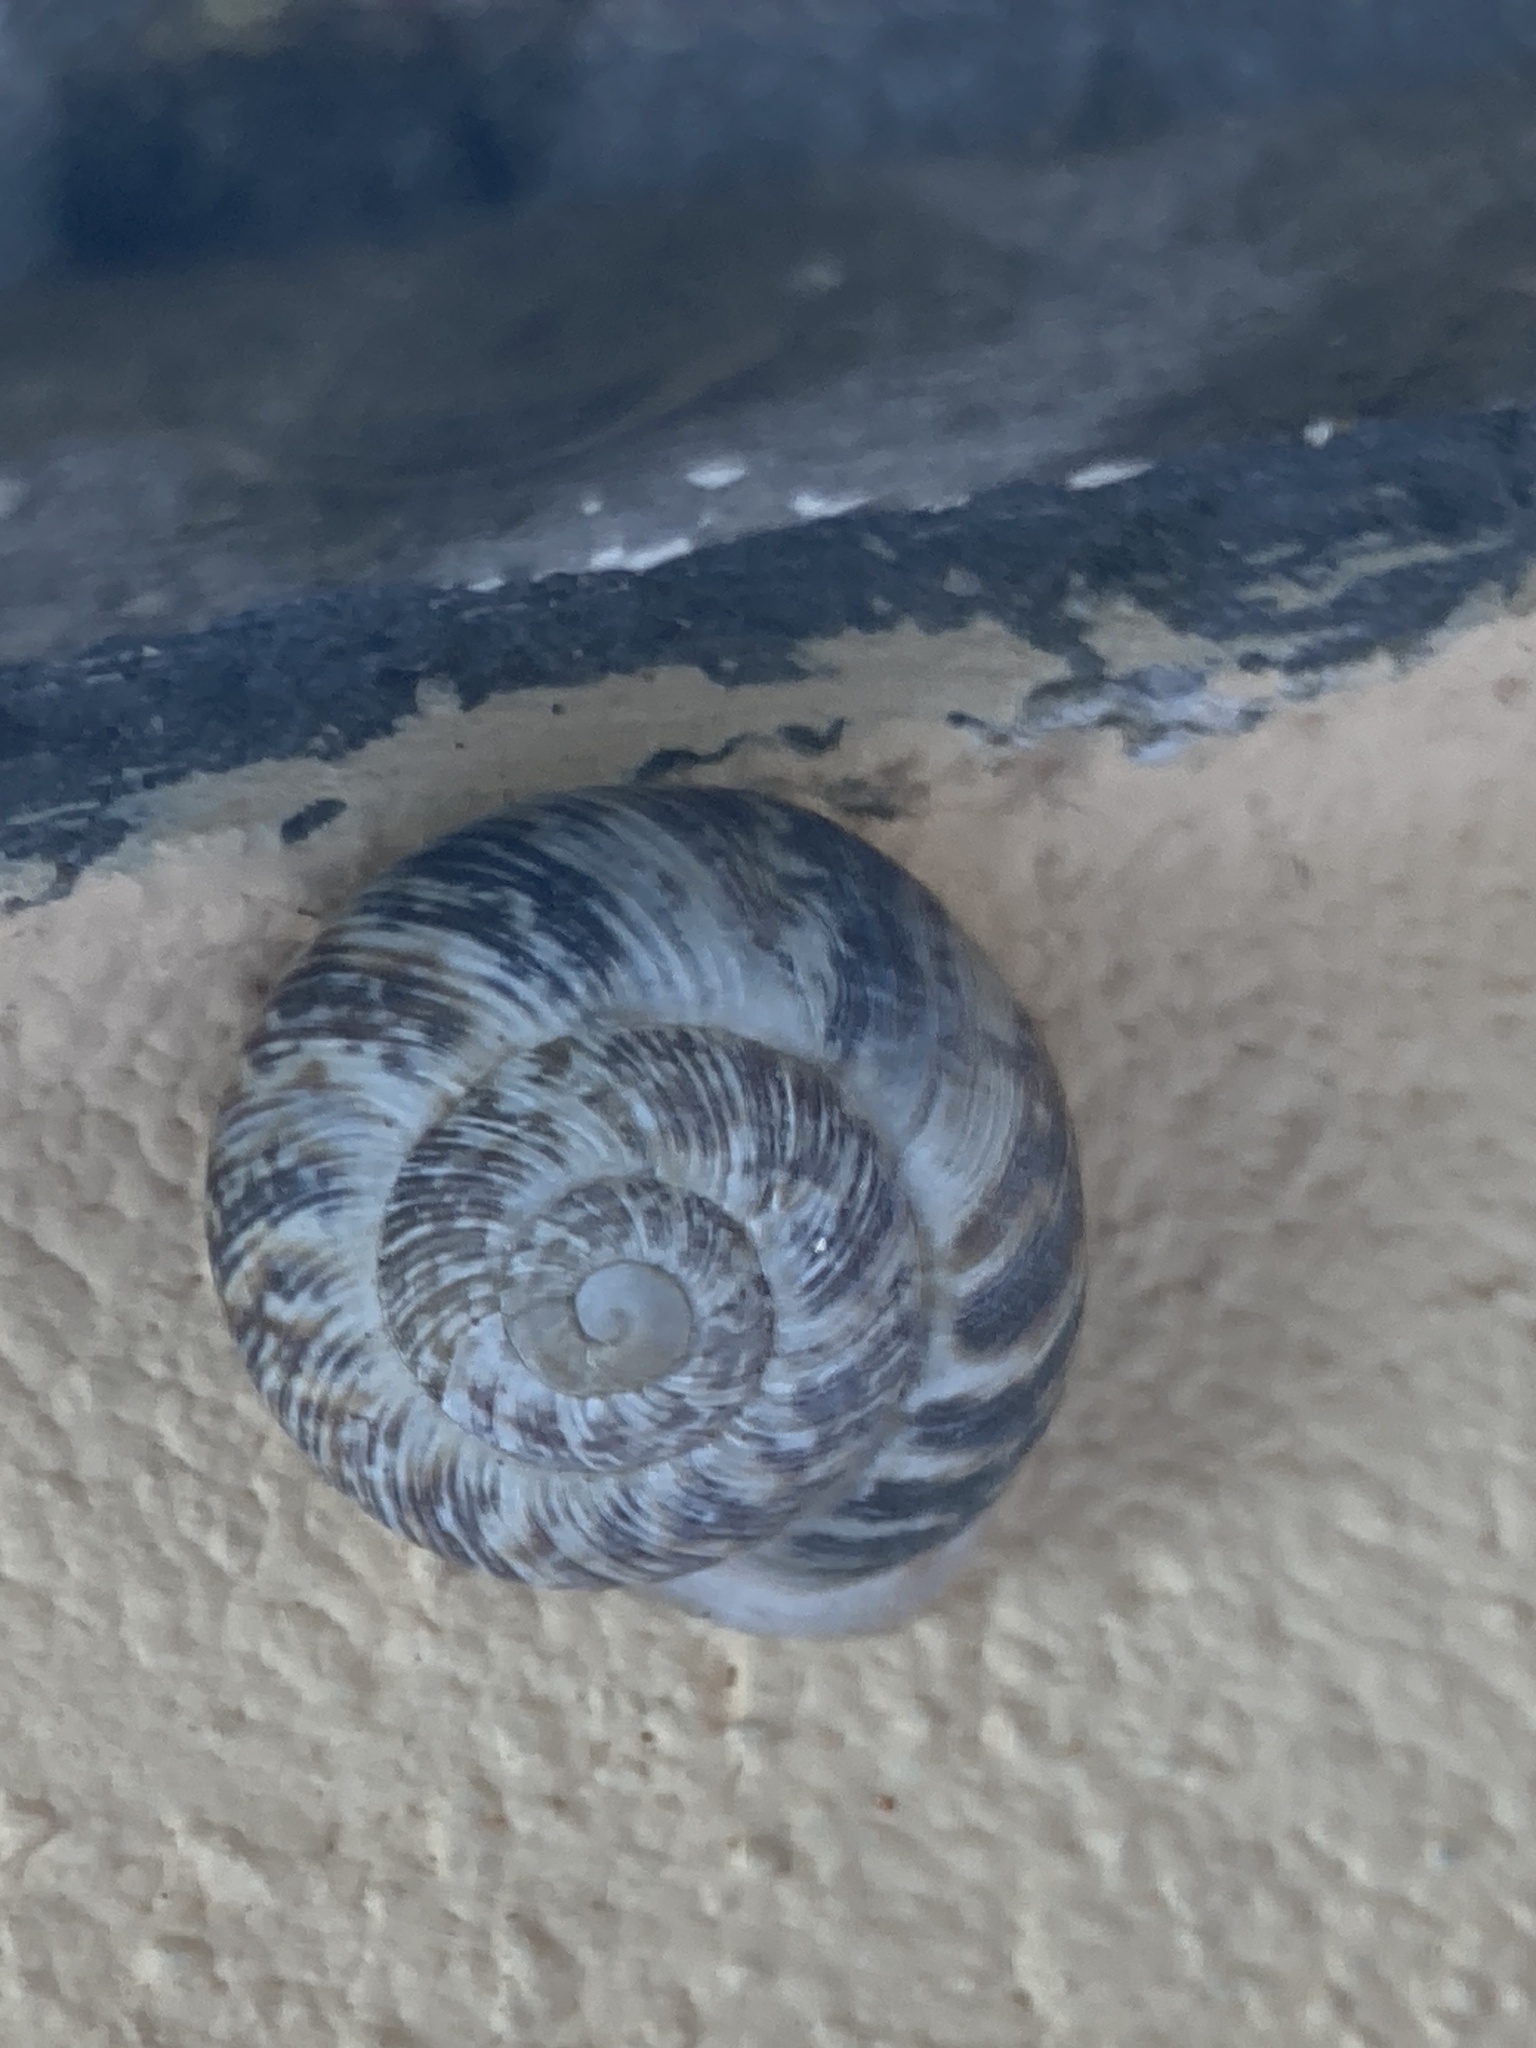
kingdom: Animalia
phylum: Mollusca
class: Gastropoda
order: Stylommatophora
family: Helicidae
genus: Marmorana
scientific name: Marmorana muralis
